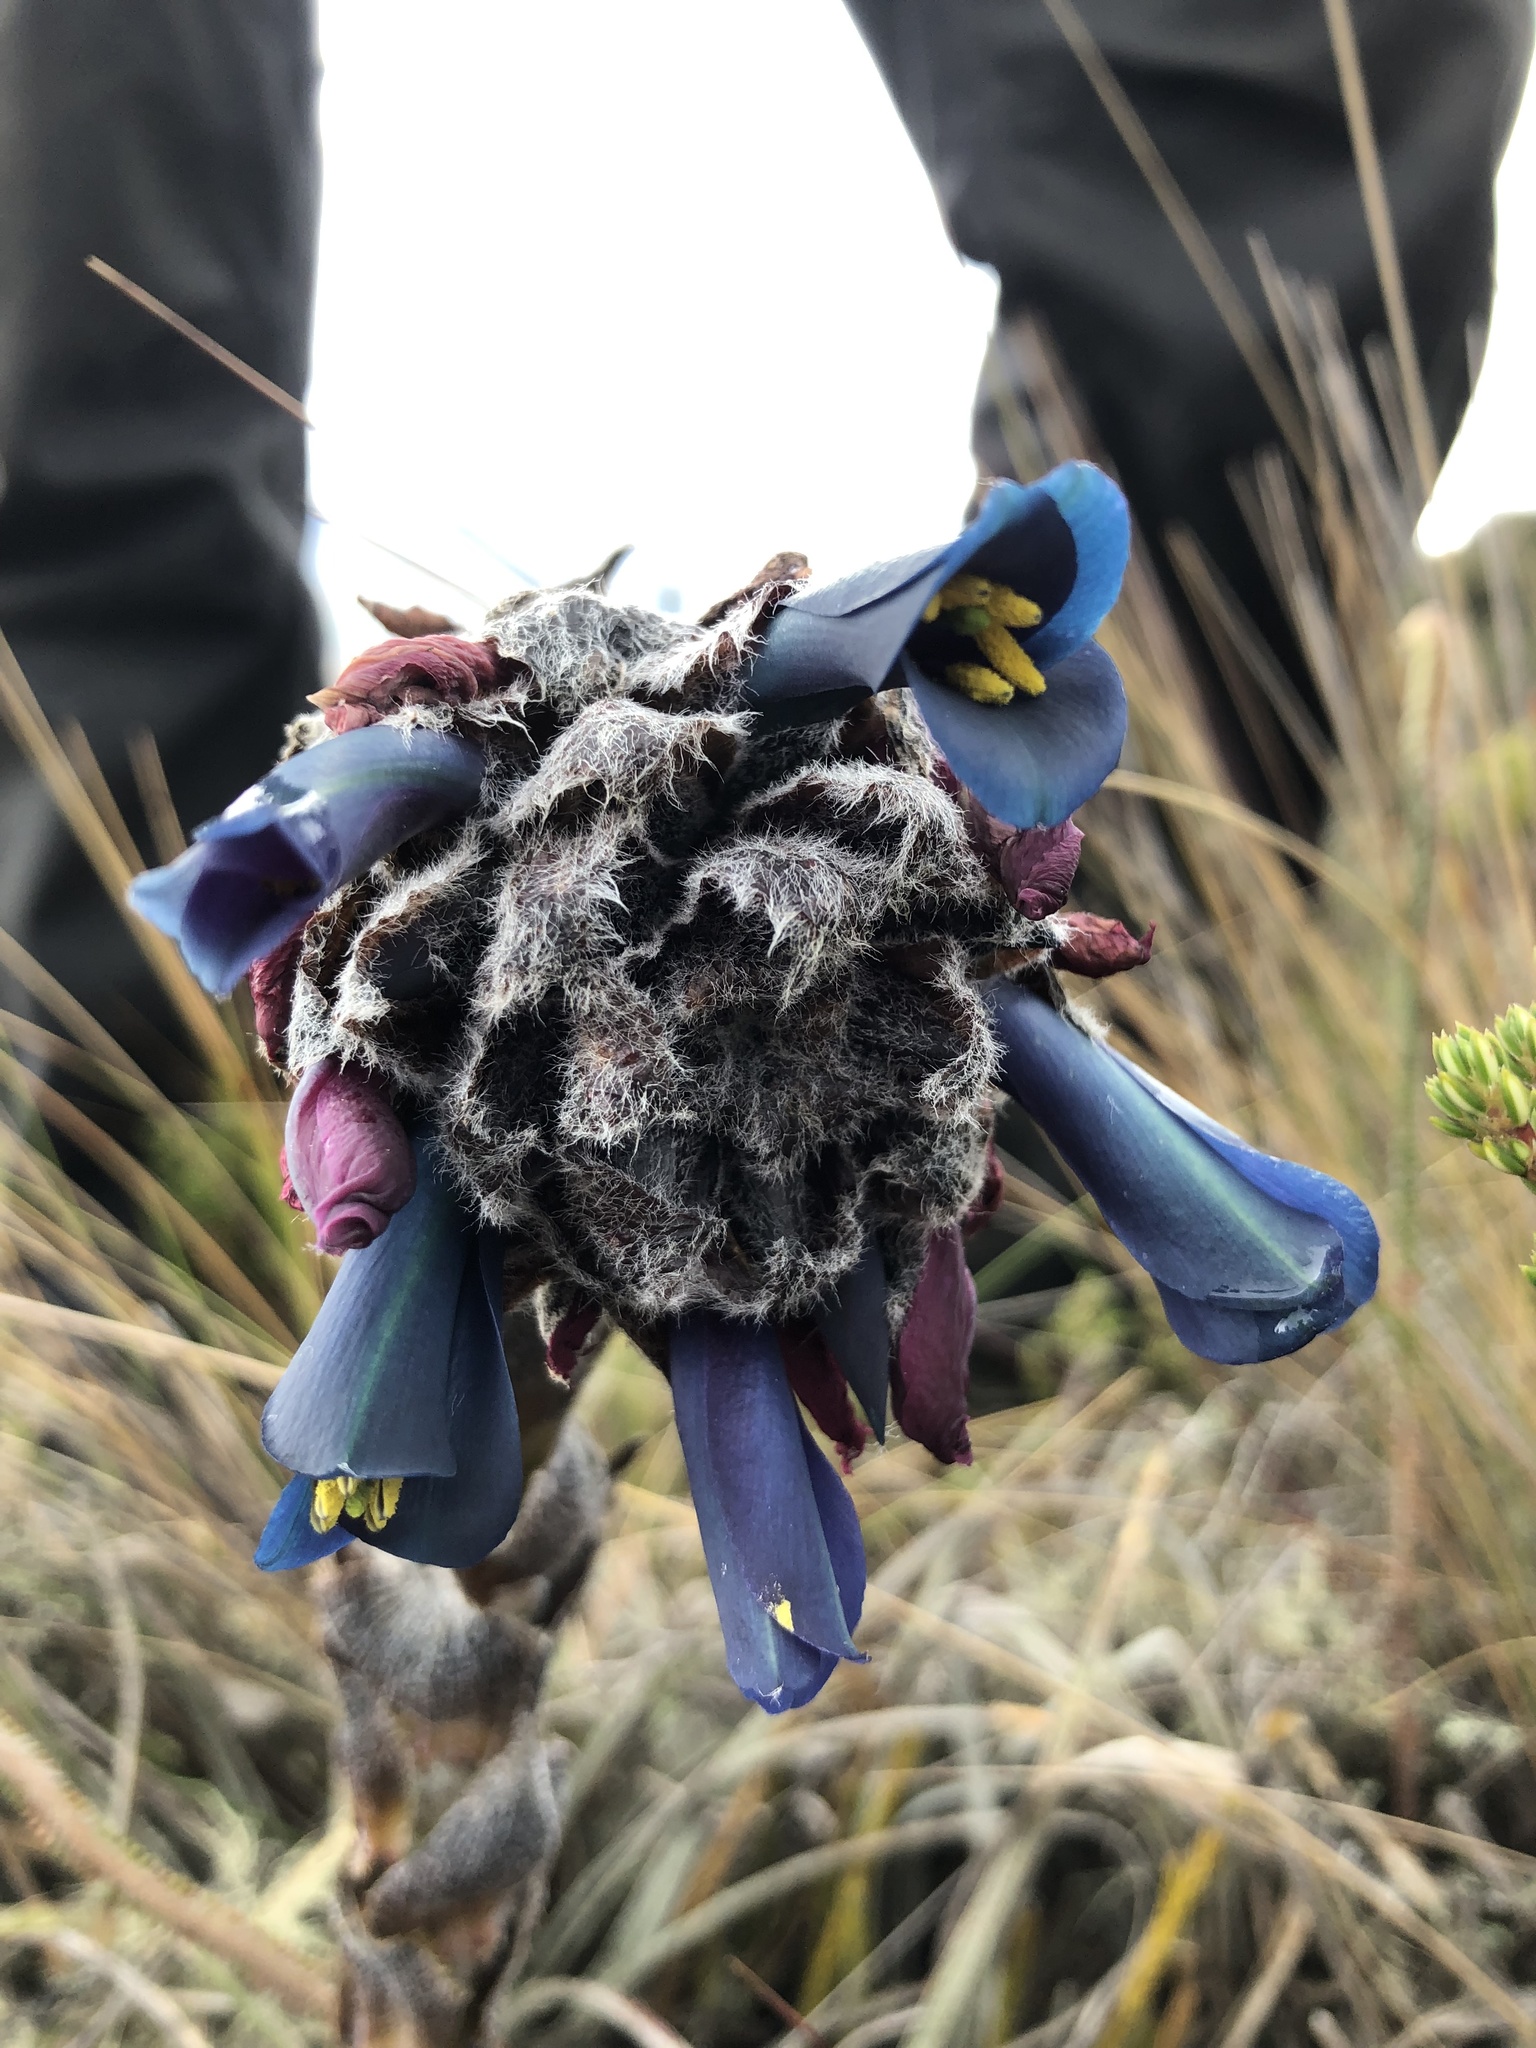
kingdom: Plantae
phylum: Tracheophyta
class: Liliopsida
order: Poales
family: Bromeliaceae
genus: Puya
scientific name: Puya lineata
